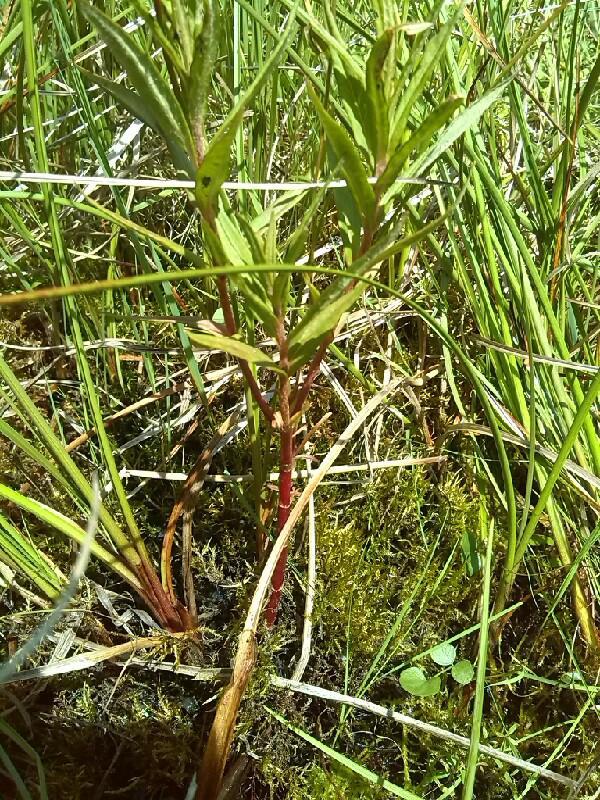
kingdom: Plantae
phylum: Tracheophyta
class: Magnoliopsida
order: Lamiales
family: Plantaginaceae
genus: Veronica
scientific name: Veronica scutellata
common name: Marsh speedwell
